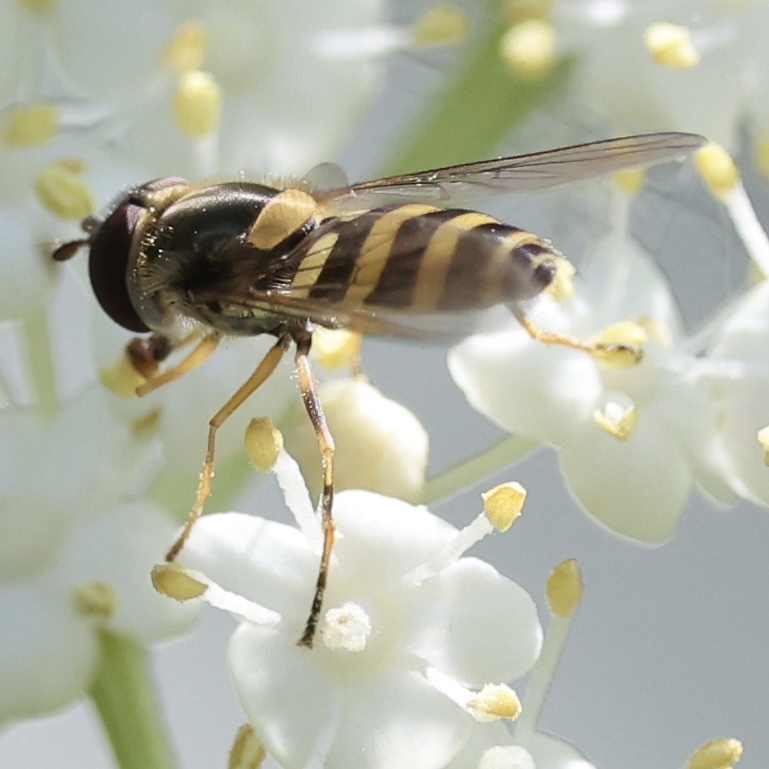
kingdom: Animalia
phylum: Arthropoda
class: Insecta
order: Diptera
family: Syrphidae
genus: Syrphus
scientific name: Syrphus knabi
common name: Eastern flower fly
